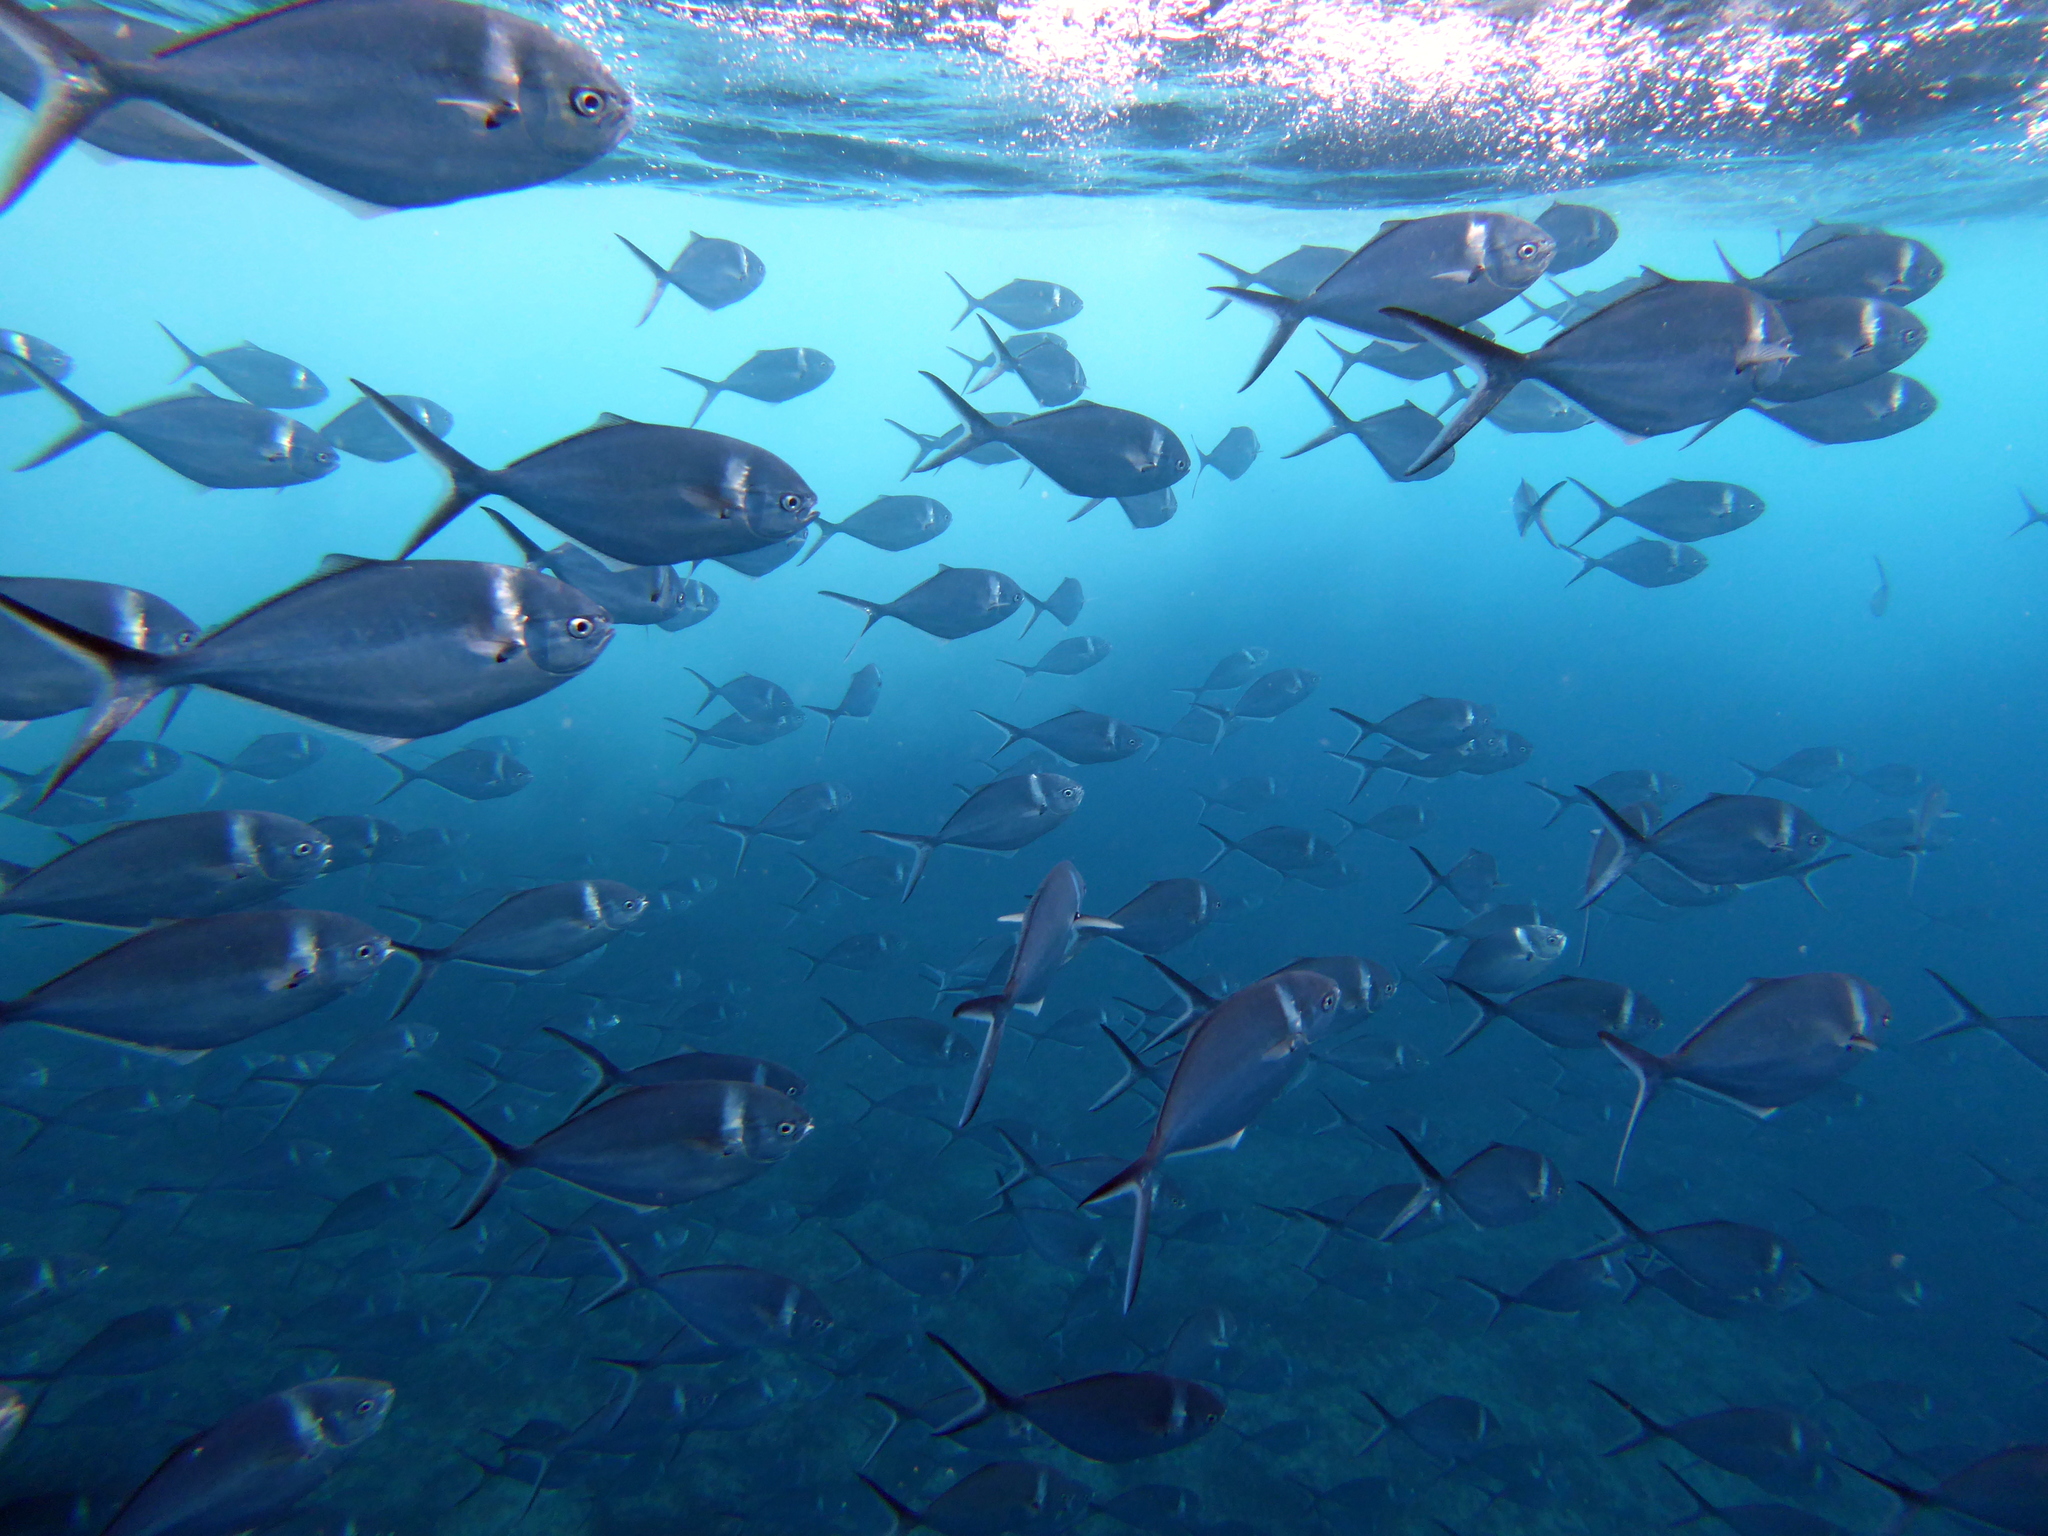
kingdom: Animalia
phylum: Chordata
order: Perciformes
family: Carangidae
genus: Trachinotus
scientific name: Trachinotus stilbe
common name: Steel pompano
